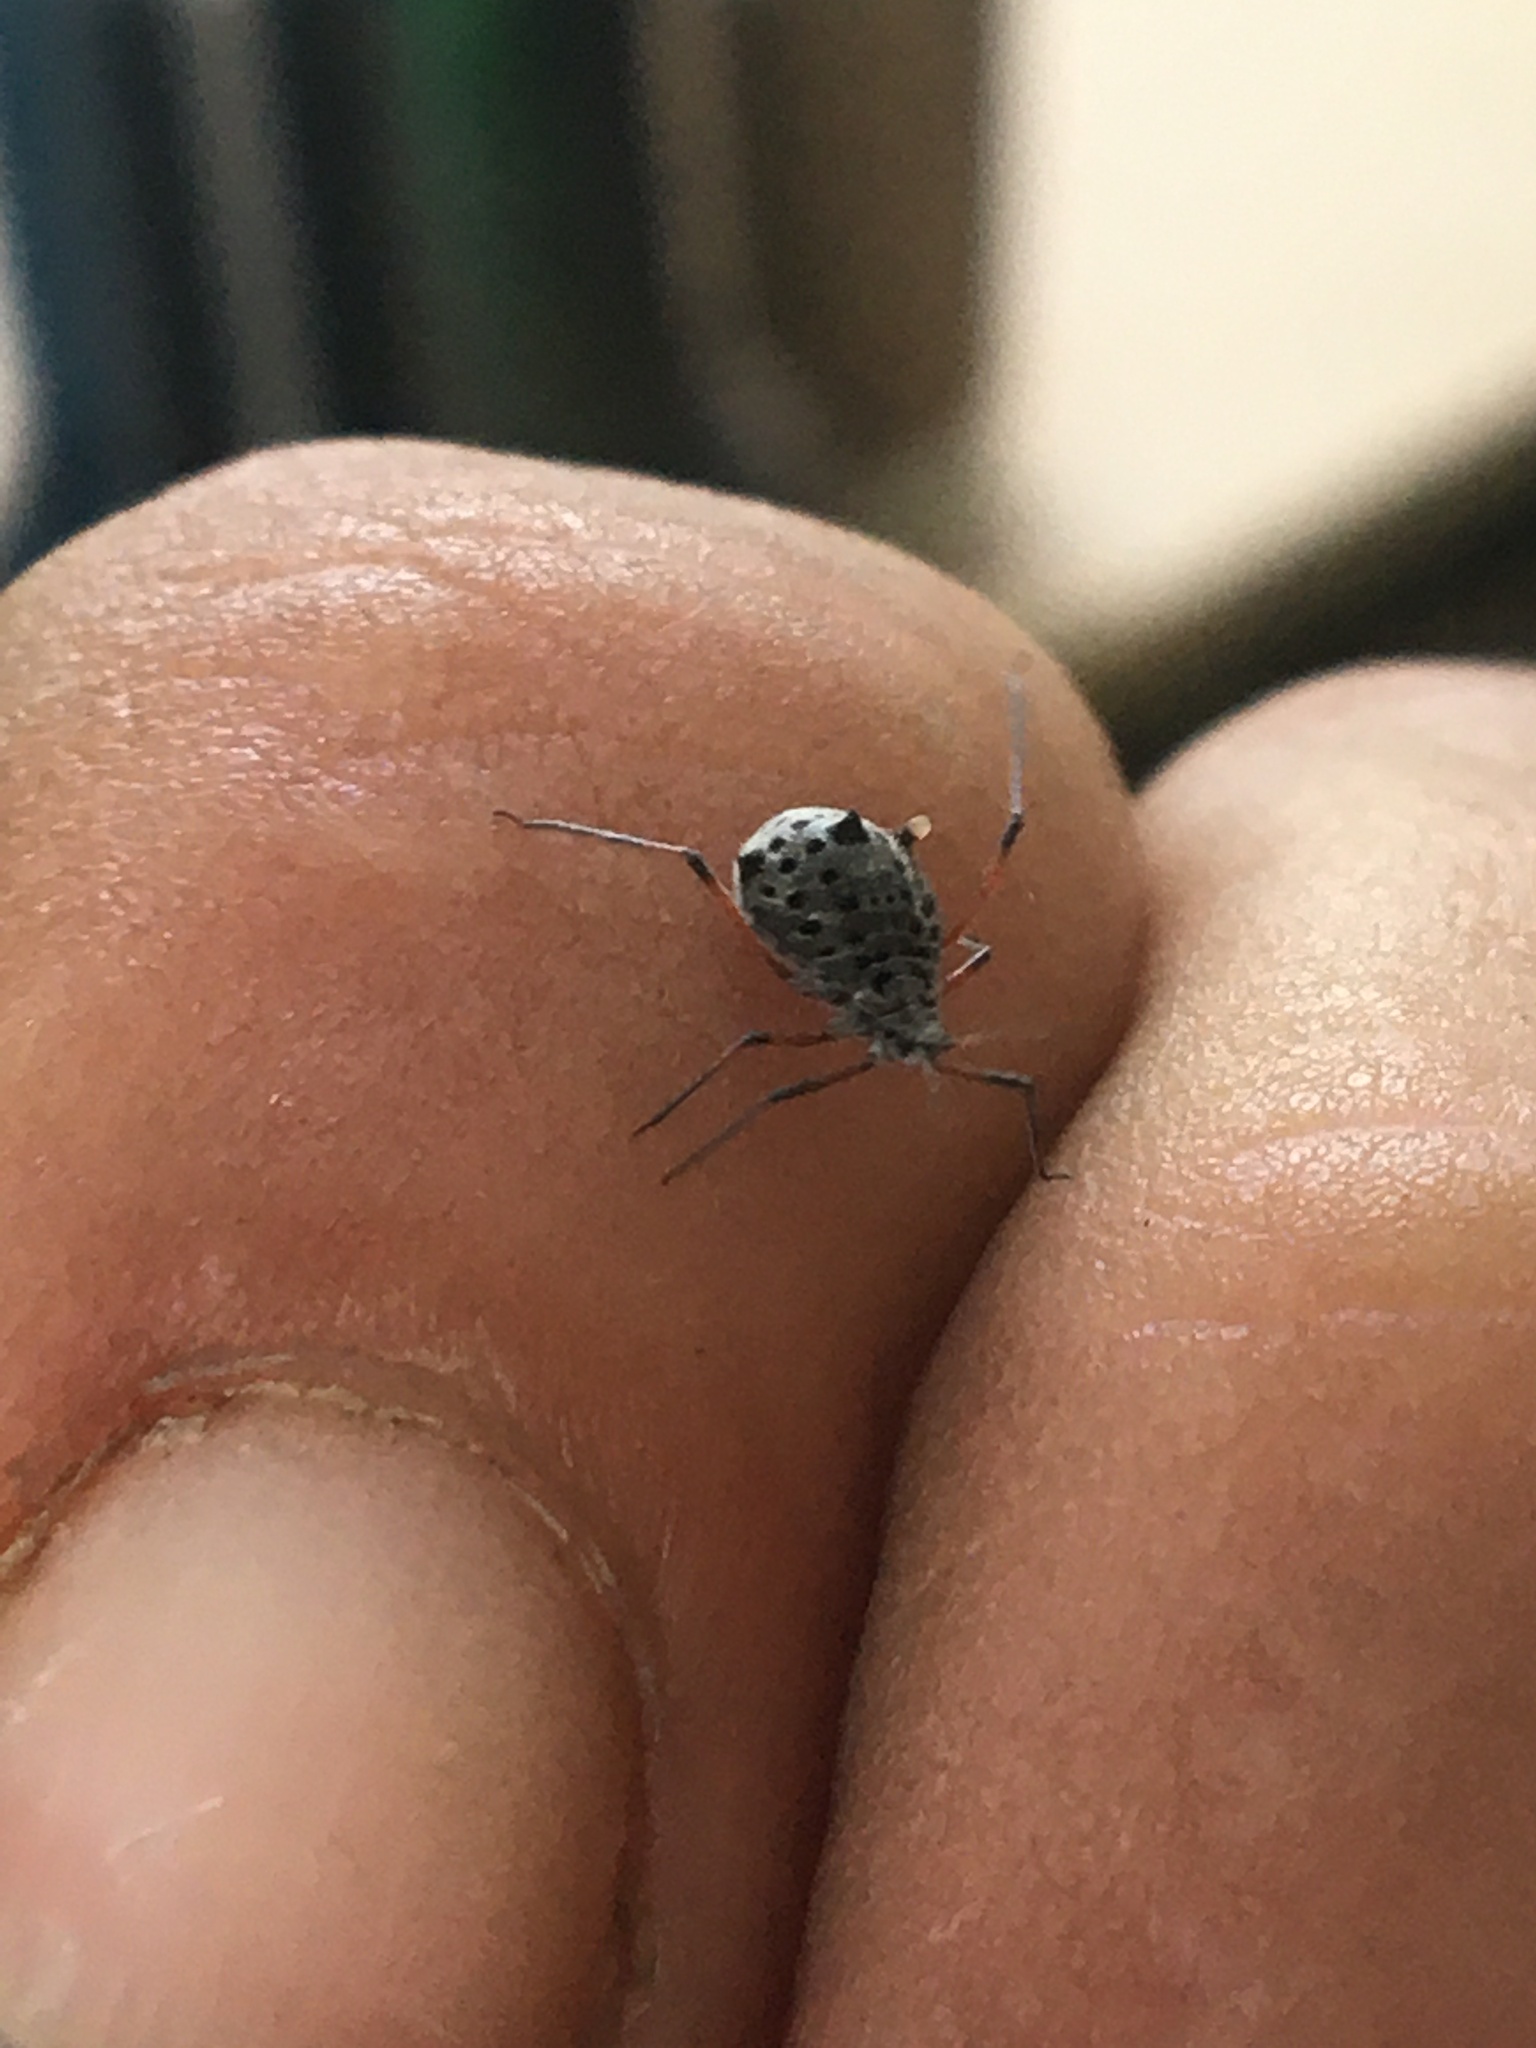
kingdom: Animalia
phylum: Arthropoda
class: Insecta
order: Hemiptera
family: Aphididae
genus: Tuberolachnus
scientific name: Tuberolachnus salignus
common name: Giant willow aphid
